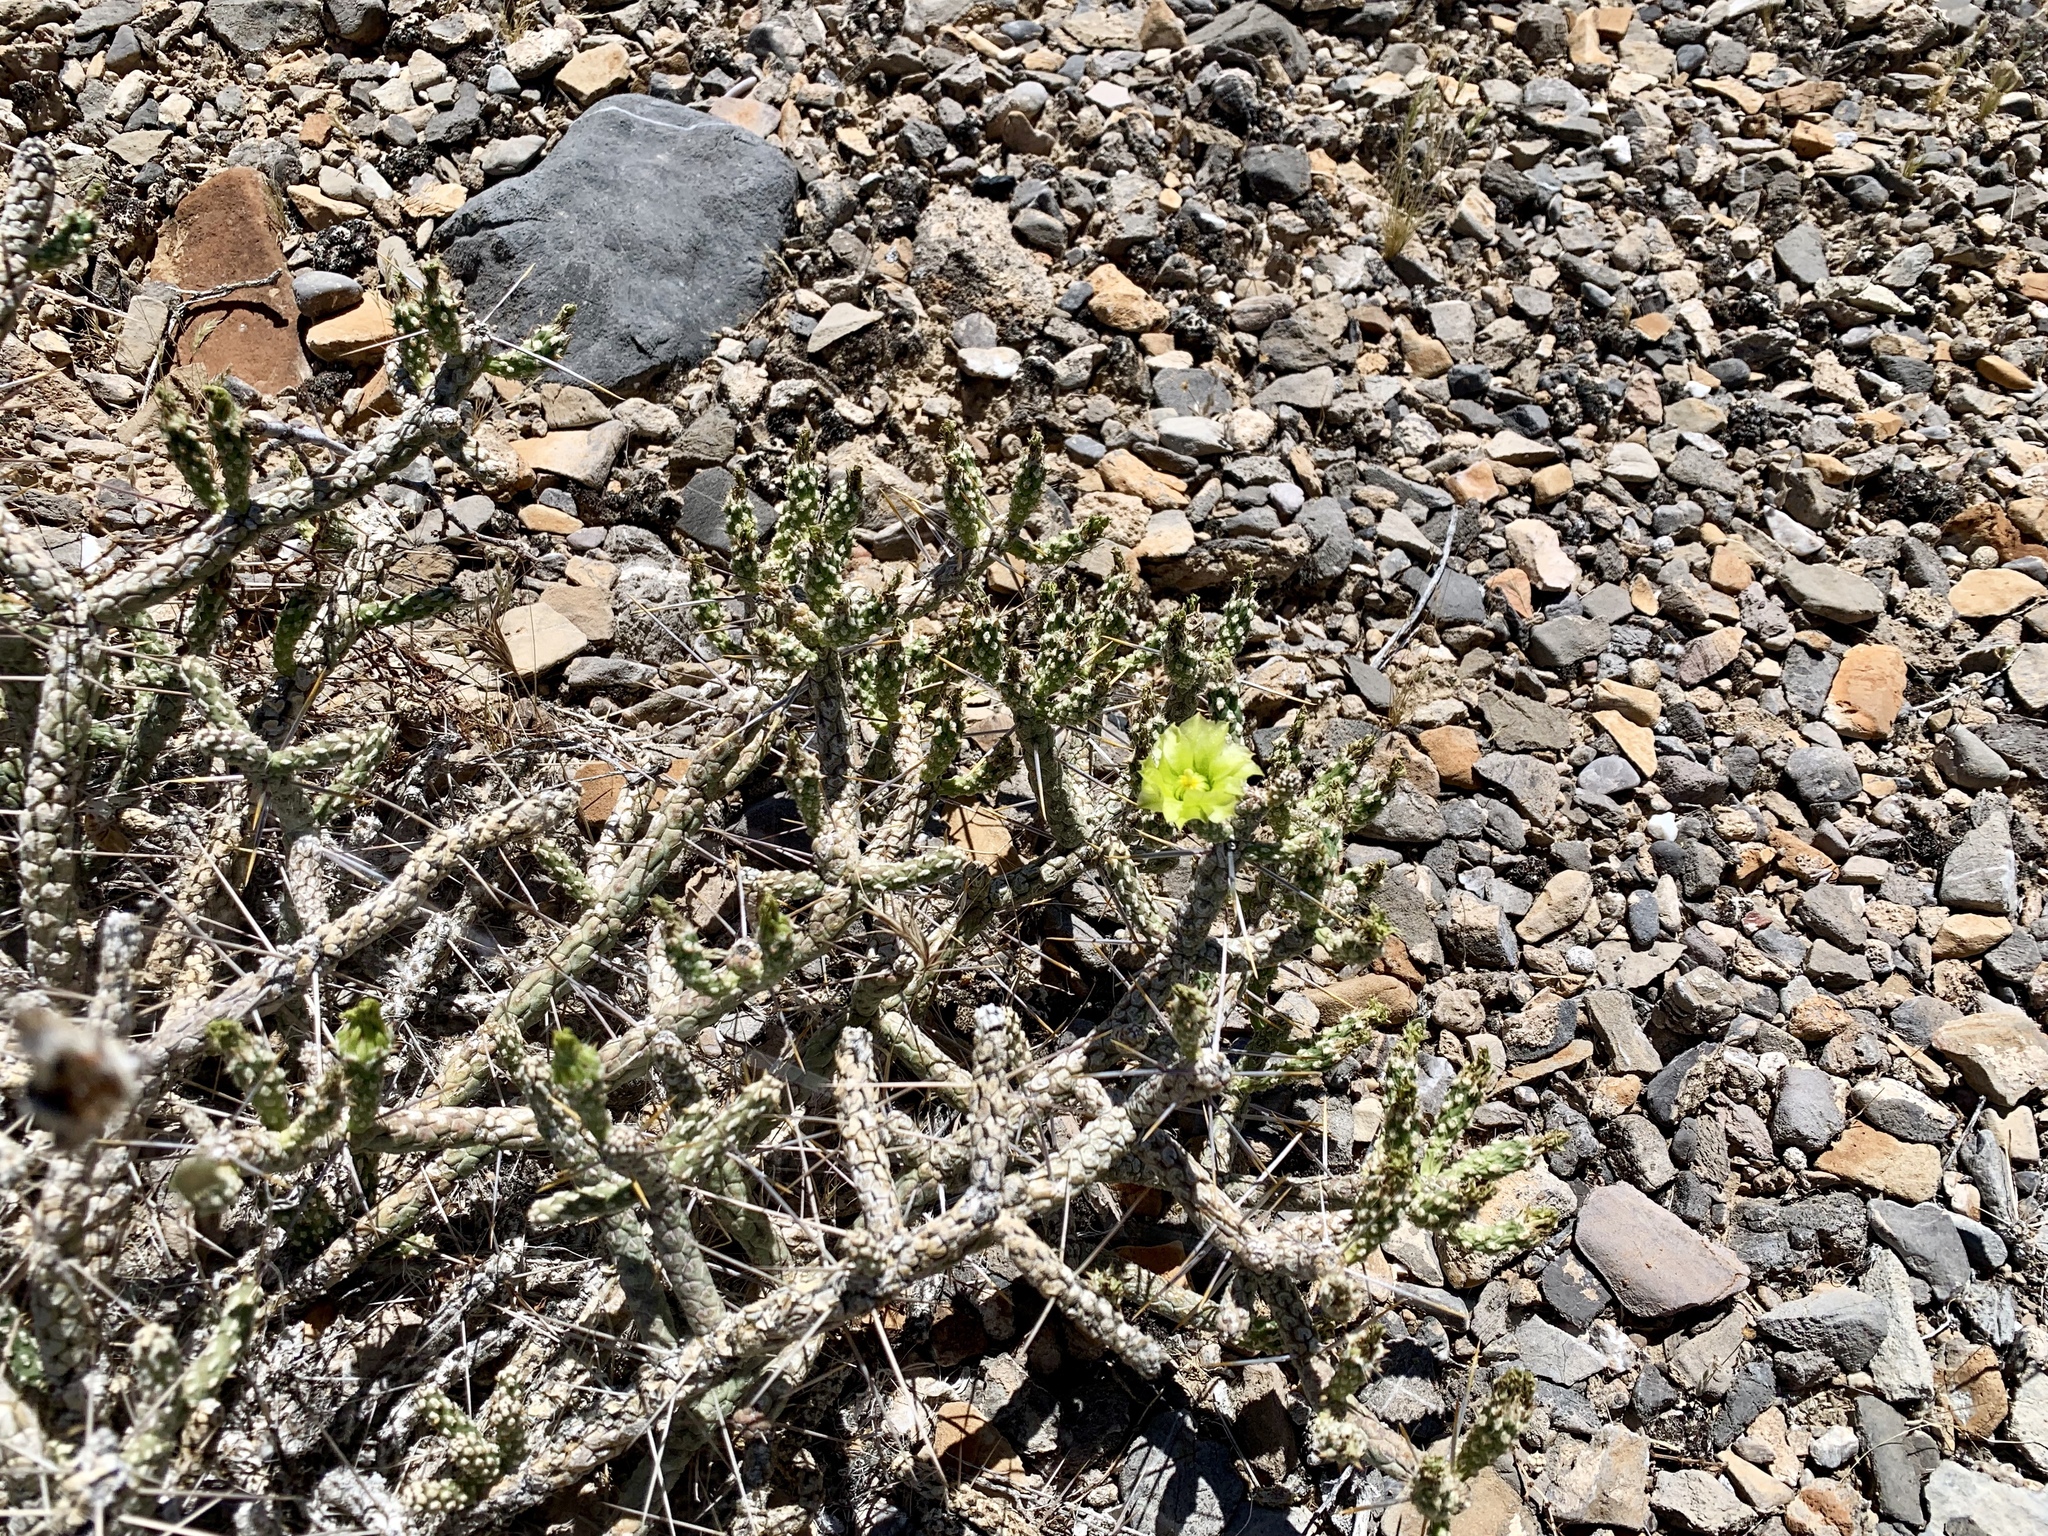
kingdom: Plantae
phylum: Tracheophyta
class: Magnoliopsida
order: Caryophyllales
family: Cactaceae
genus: Cylindropuntia
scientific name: Cylindropuntia ramosissima
